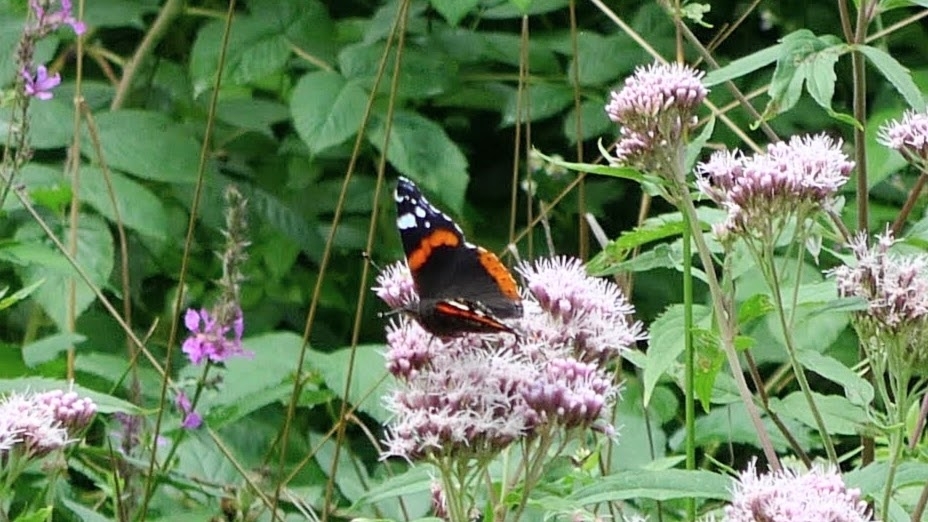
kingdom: Animalia
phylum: Arthropoda
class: Insecta
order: Lepidoptera
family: Nymphalidae
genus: Vanessa
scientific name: Vanessa atalanta
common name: Red admiral
